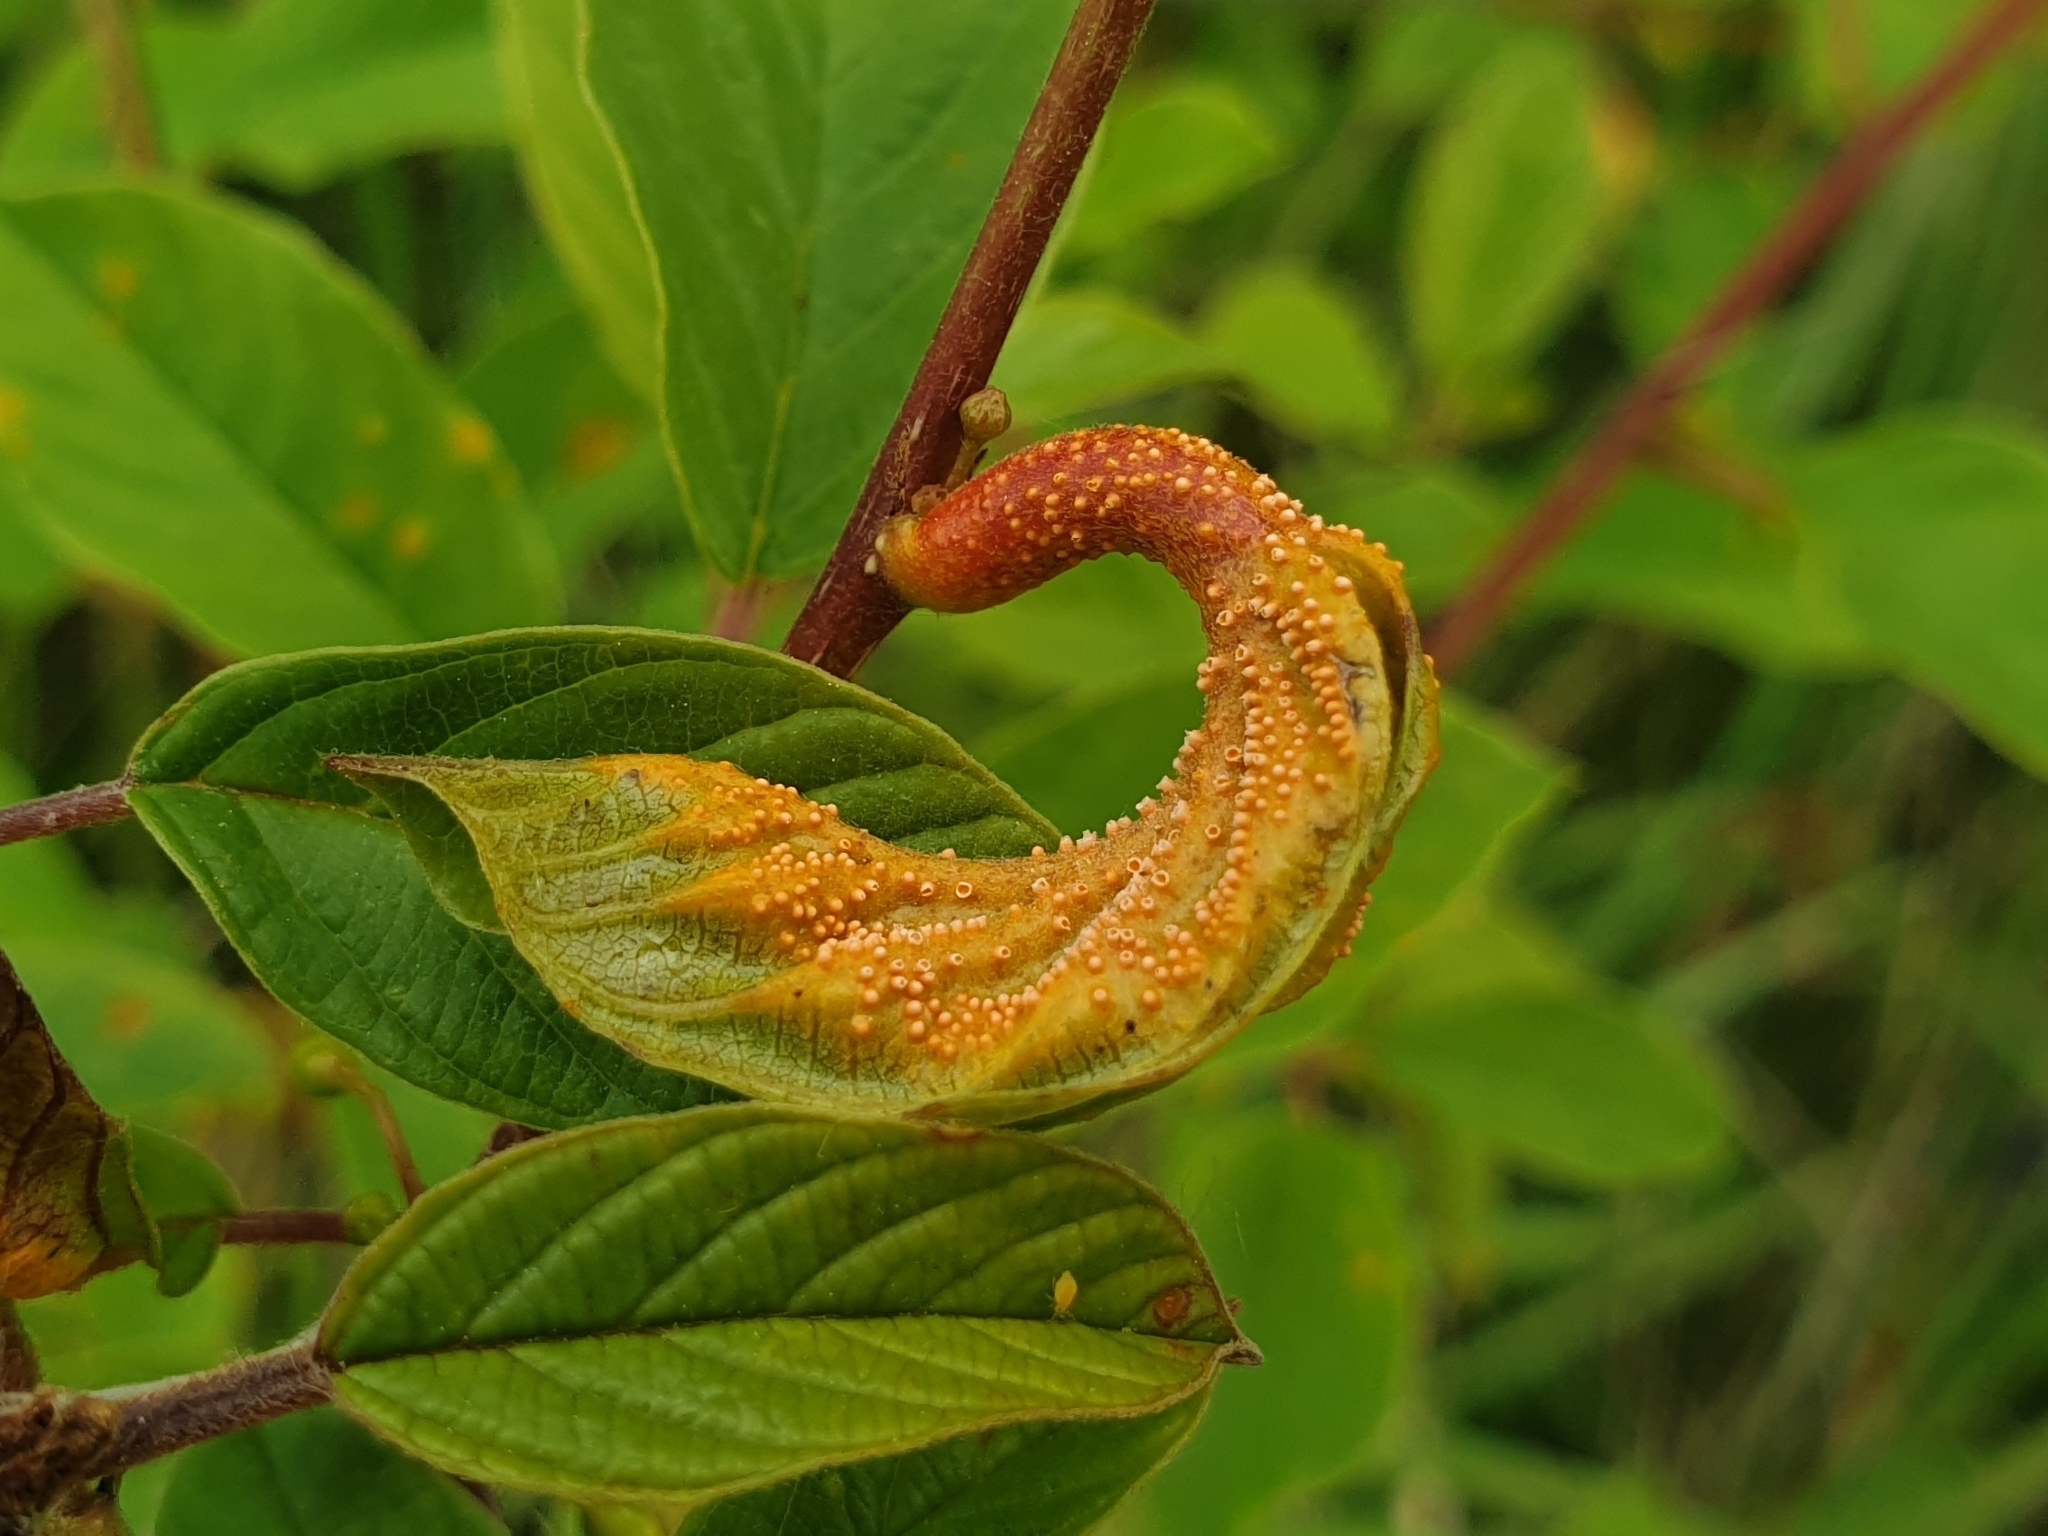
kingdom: Fungi
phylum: Basidiomycota
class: Pucciniomycetes
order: Pucciniales
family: Pucciniaceae
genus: Puccinia
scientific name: Puccinia coronata
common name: Crown rust
